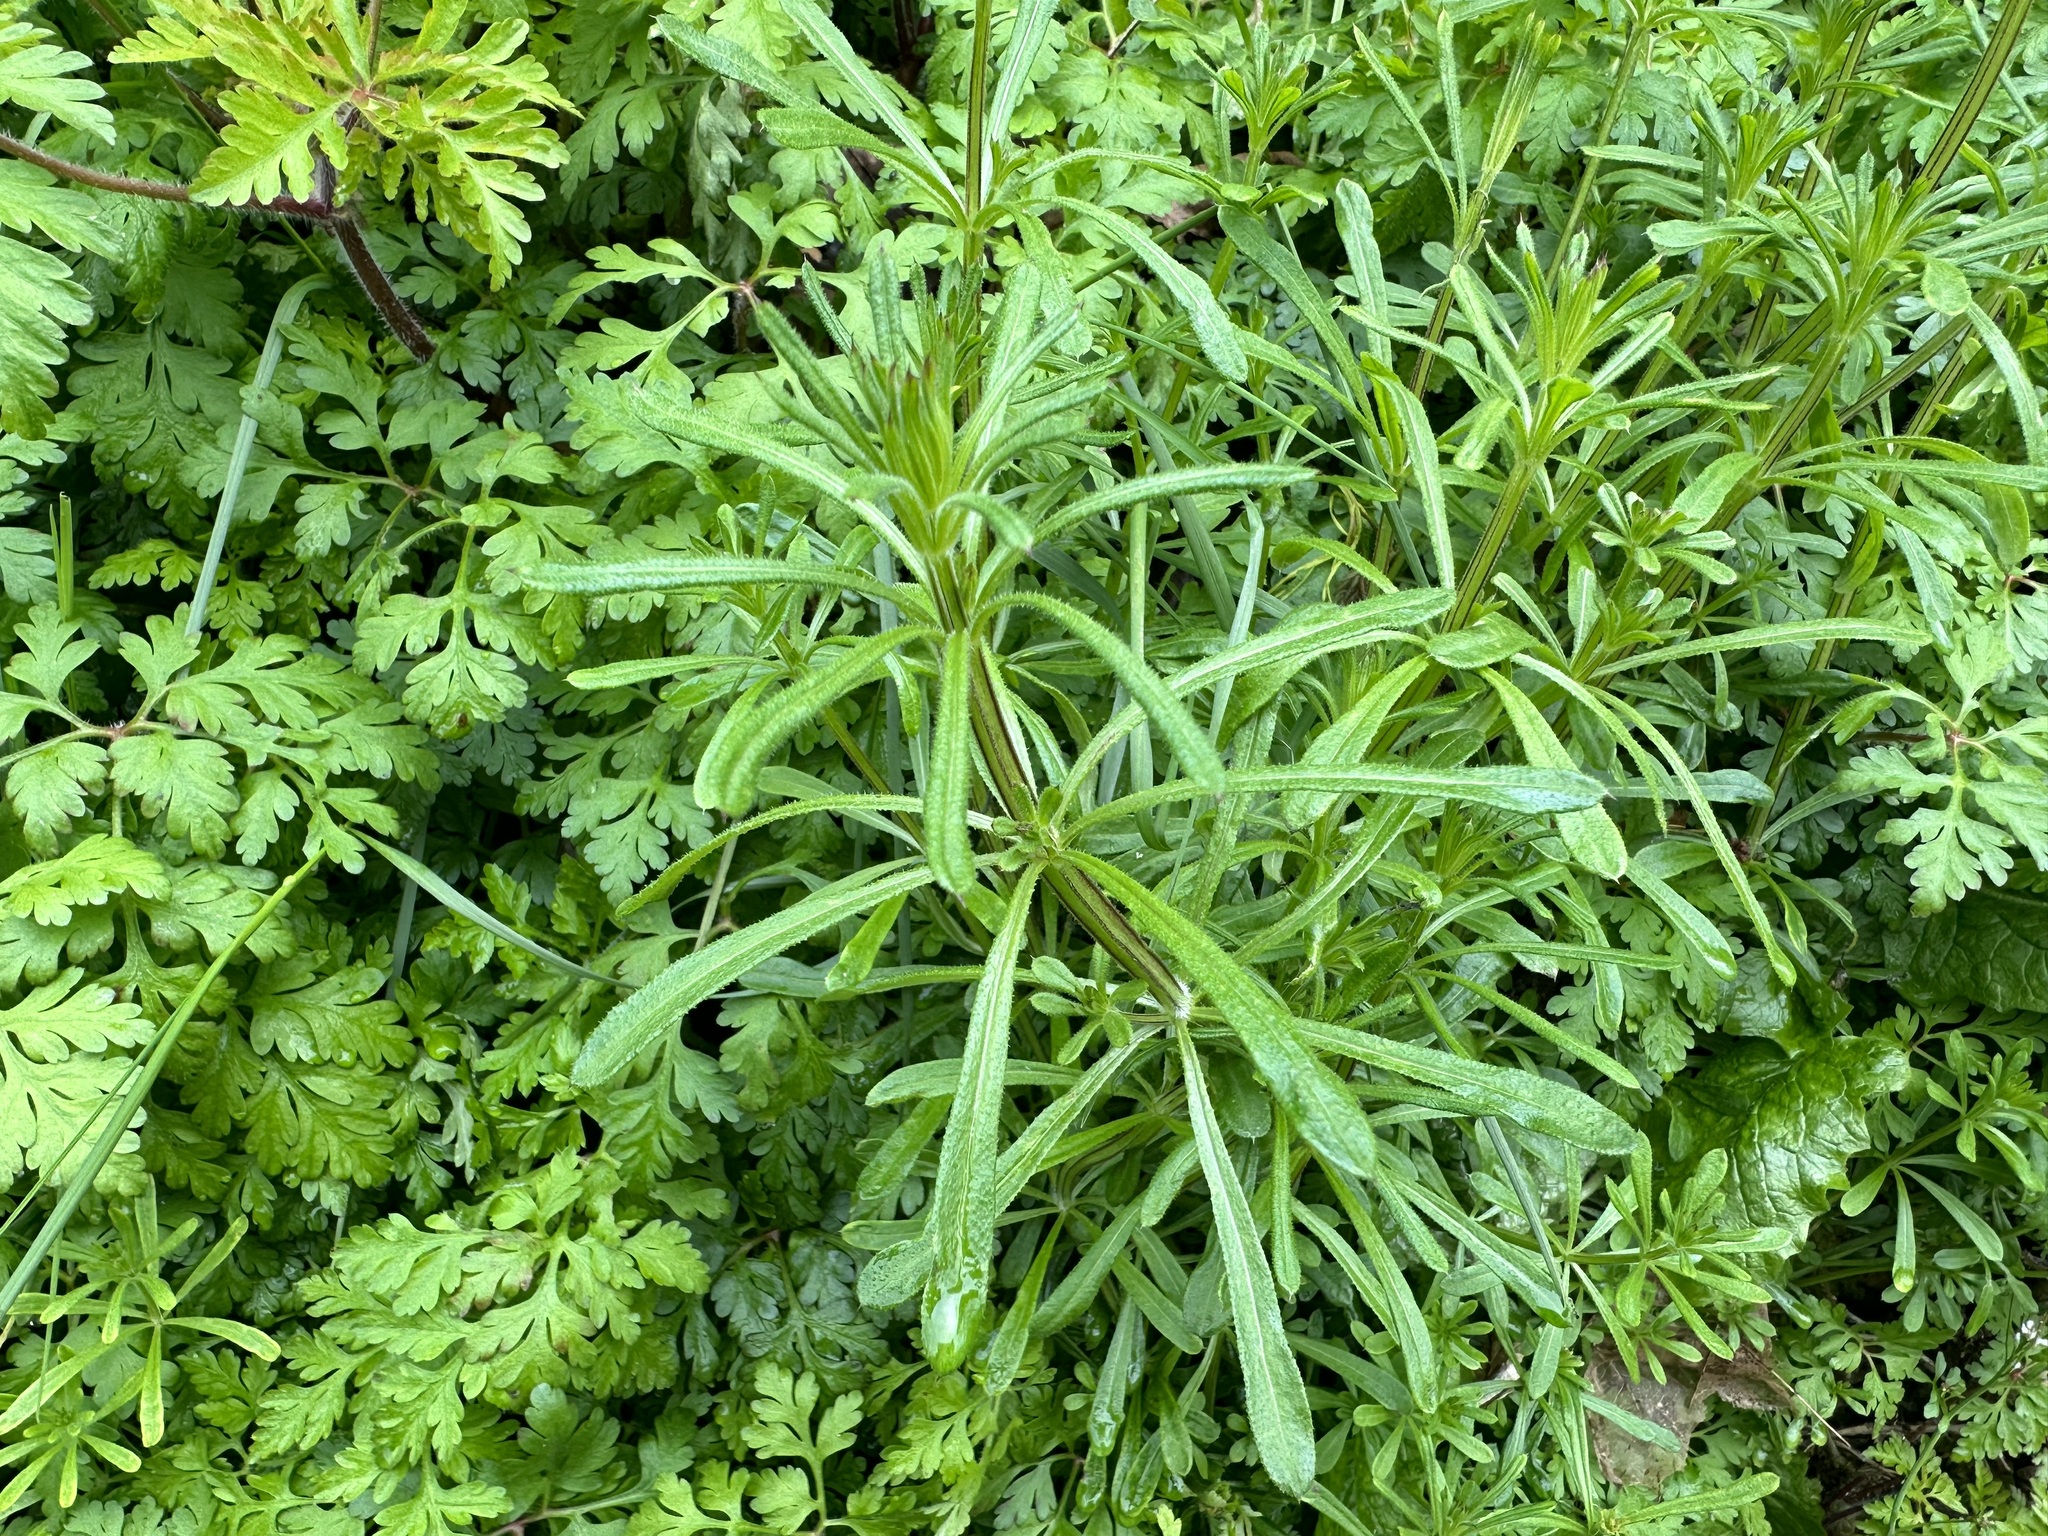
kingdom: Plantae
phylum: Tracheophyta
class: Magnoliopsida
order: Gentianales
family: Rubiaceae
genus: Galium
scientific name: Galium aparine
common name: Cleavers
